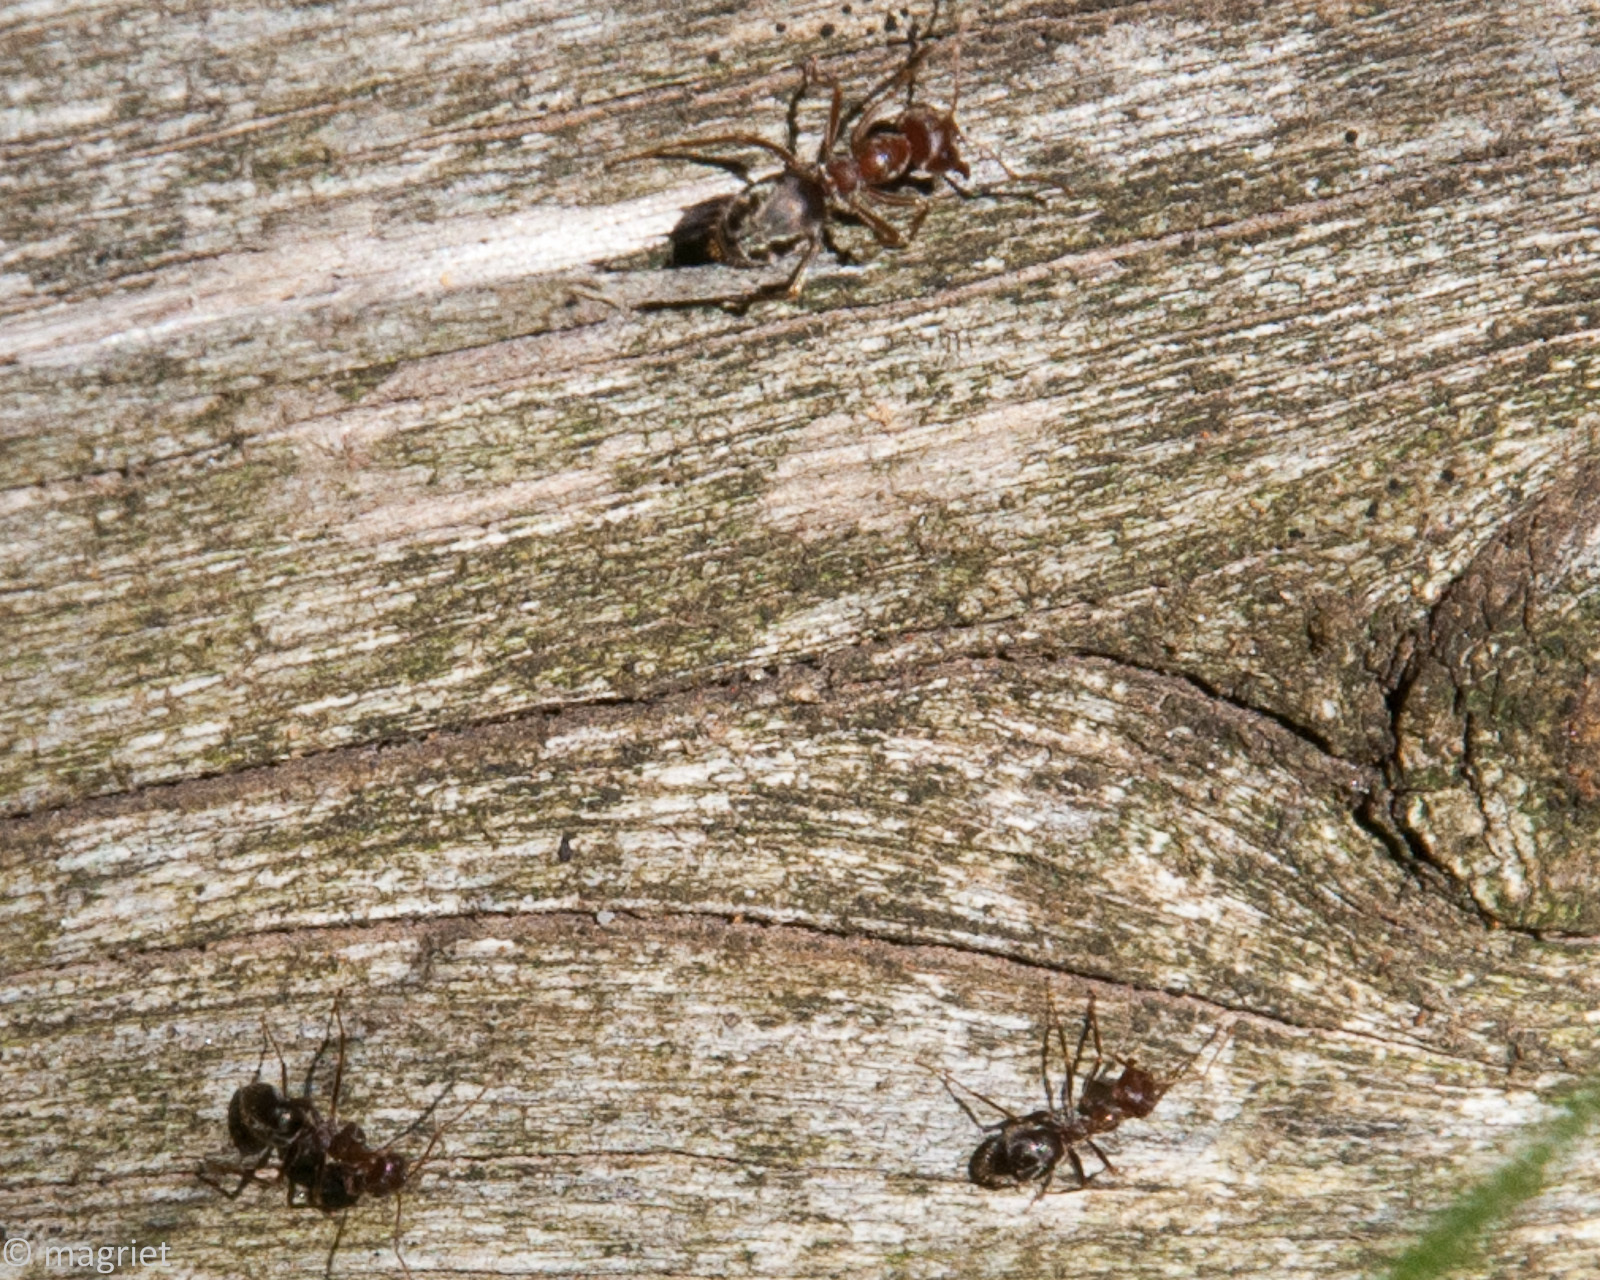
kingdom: Animalia
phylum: Arthropoda
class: Insecta
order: Hymenoptera
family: Formicidae
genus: Anoplolepis
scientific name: Anoplolepis custodiens
